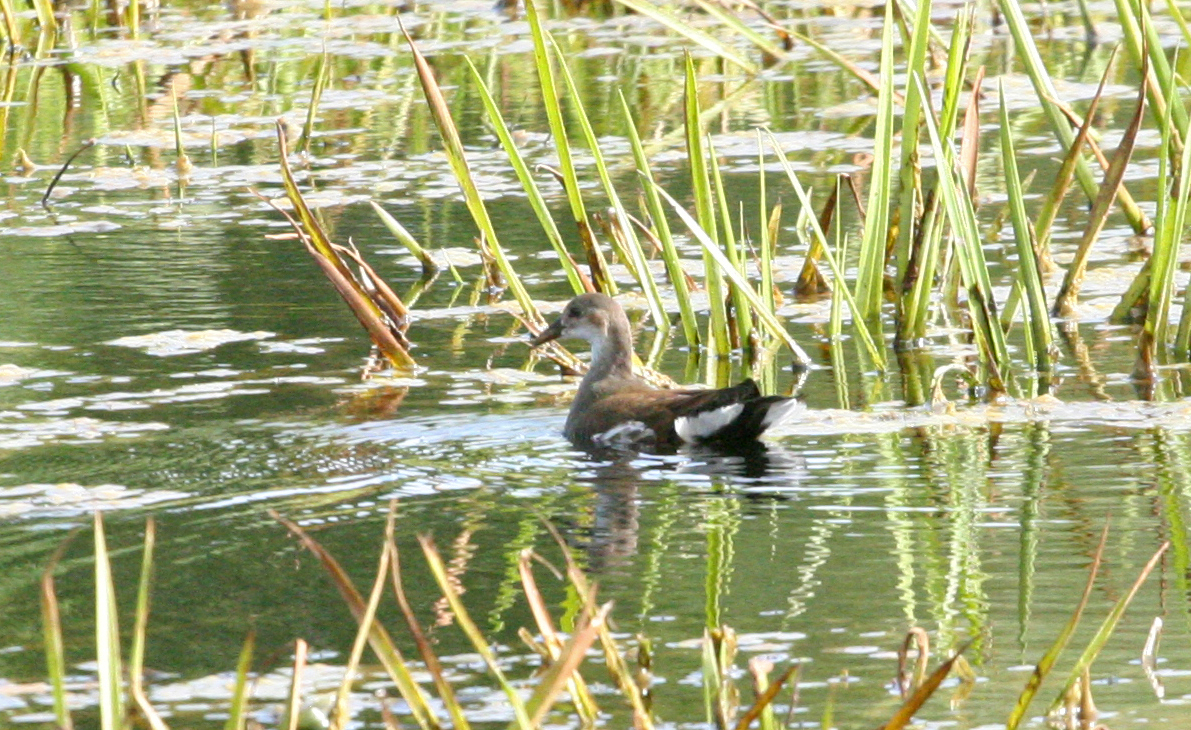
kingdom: Animalia
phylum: Chordata
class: Aves
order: Gruiformes
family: Rallidae
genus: Gallinula
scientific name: Gallinula chloropus
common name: Common moorhen
